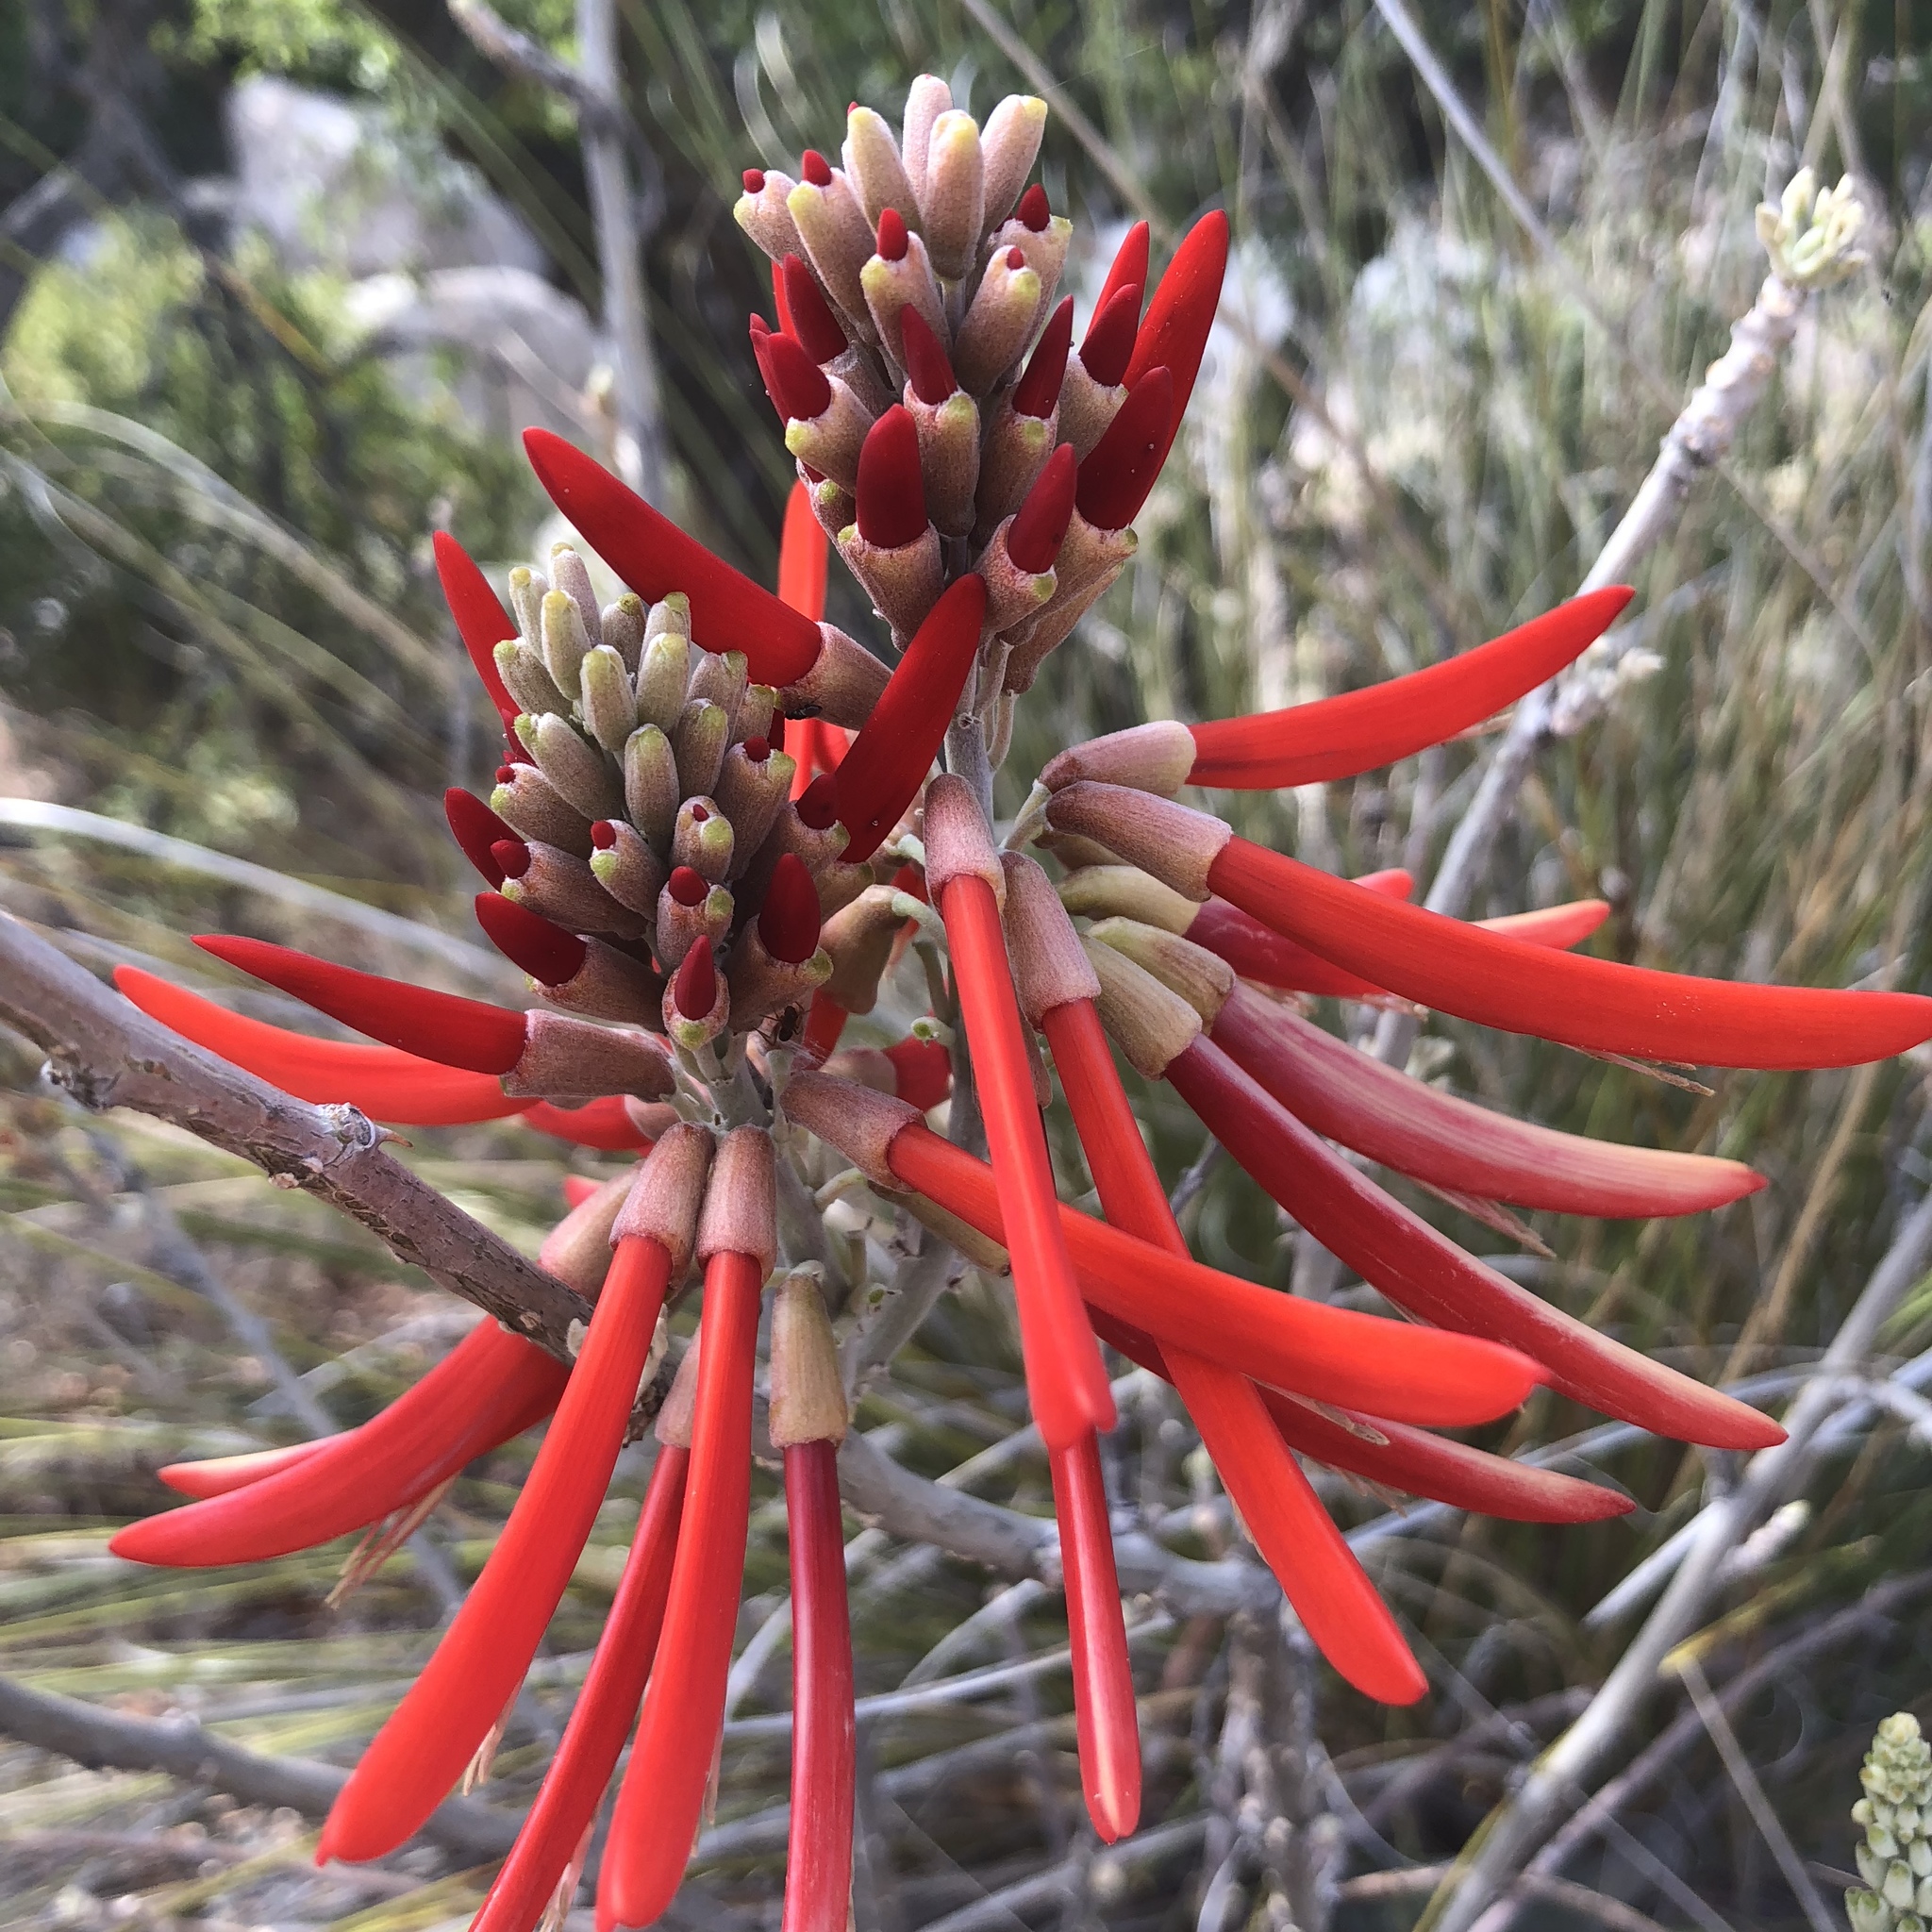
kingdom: Plantae
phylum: Tracheophyta
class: Magnoliopsida
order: Fabales
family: Fabaceae
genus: Erythrina
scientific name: Erythrina flabelliformis
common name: Chilicote
